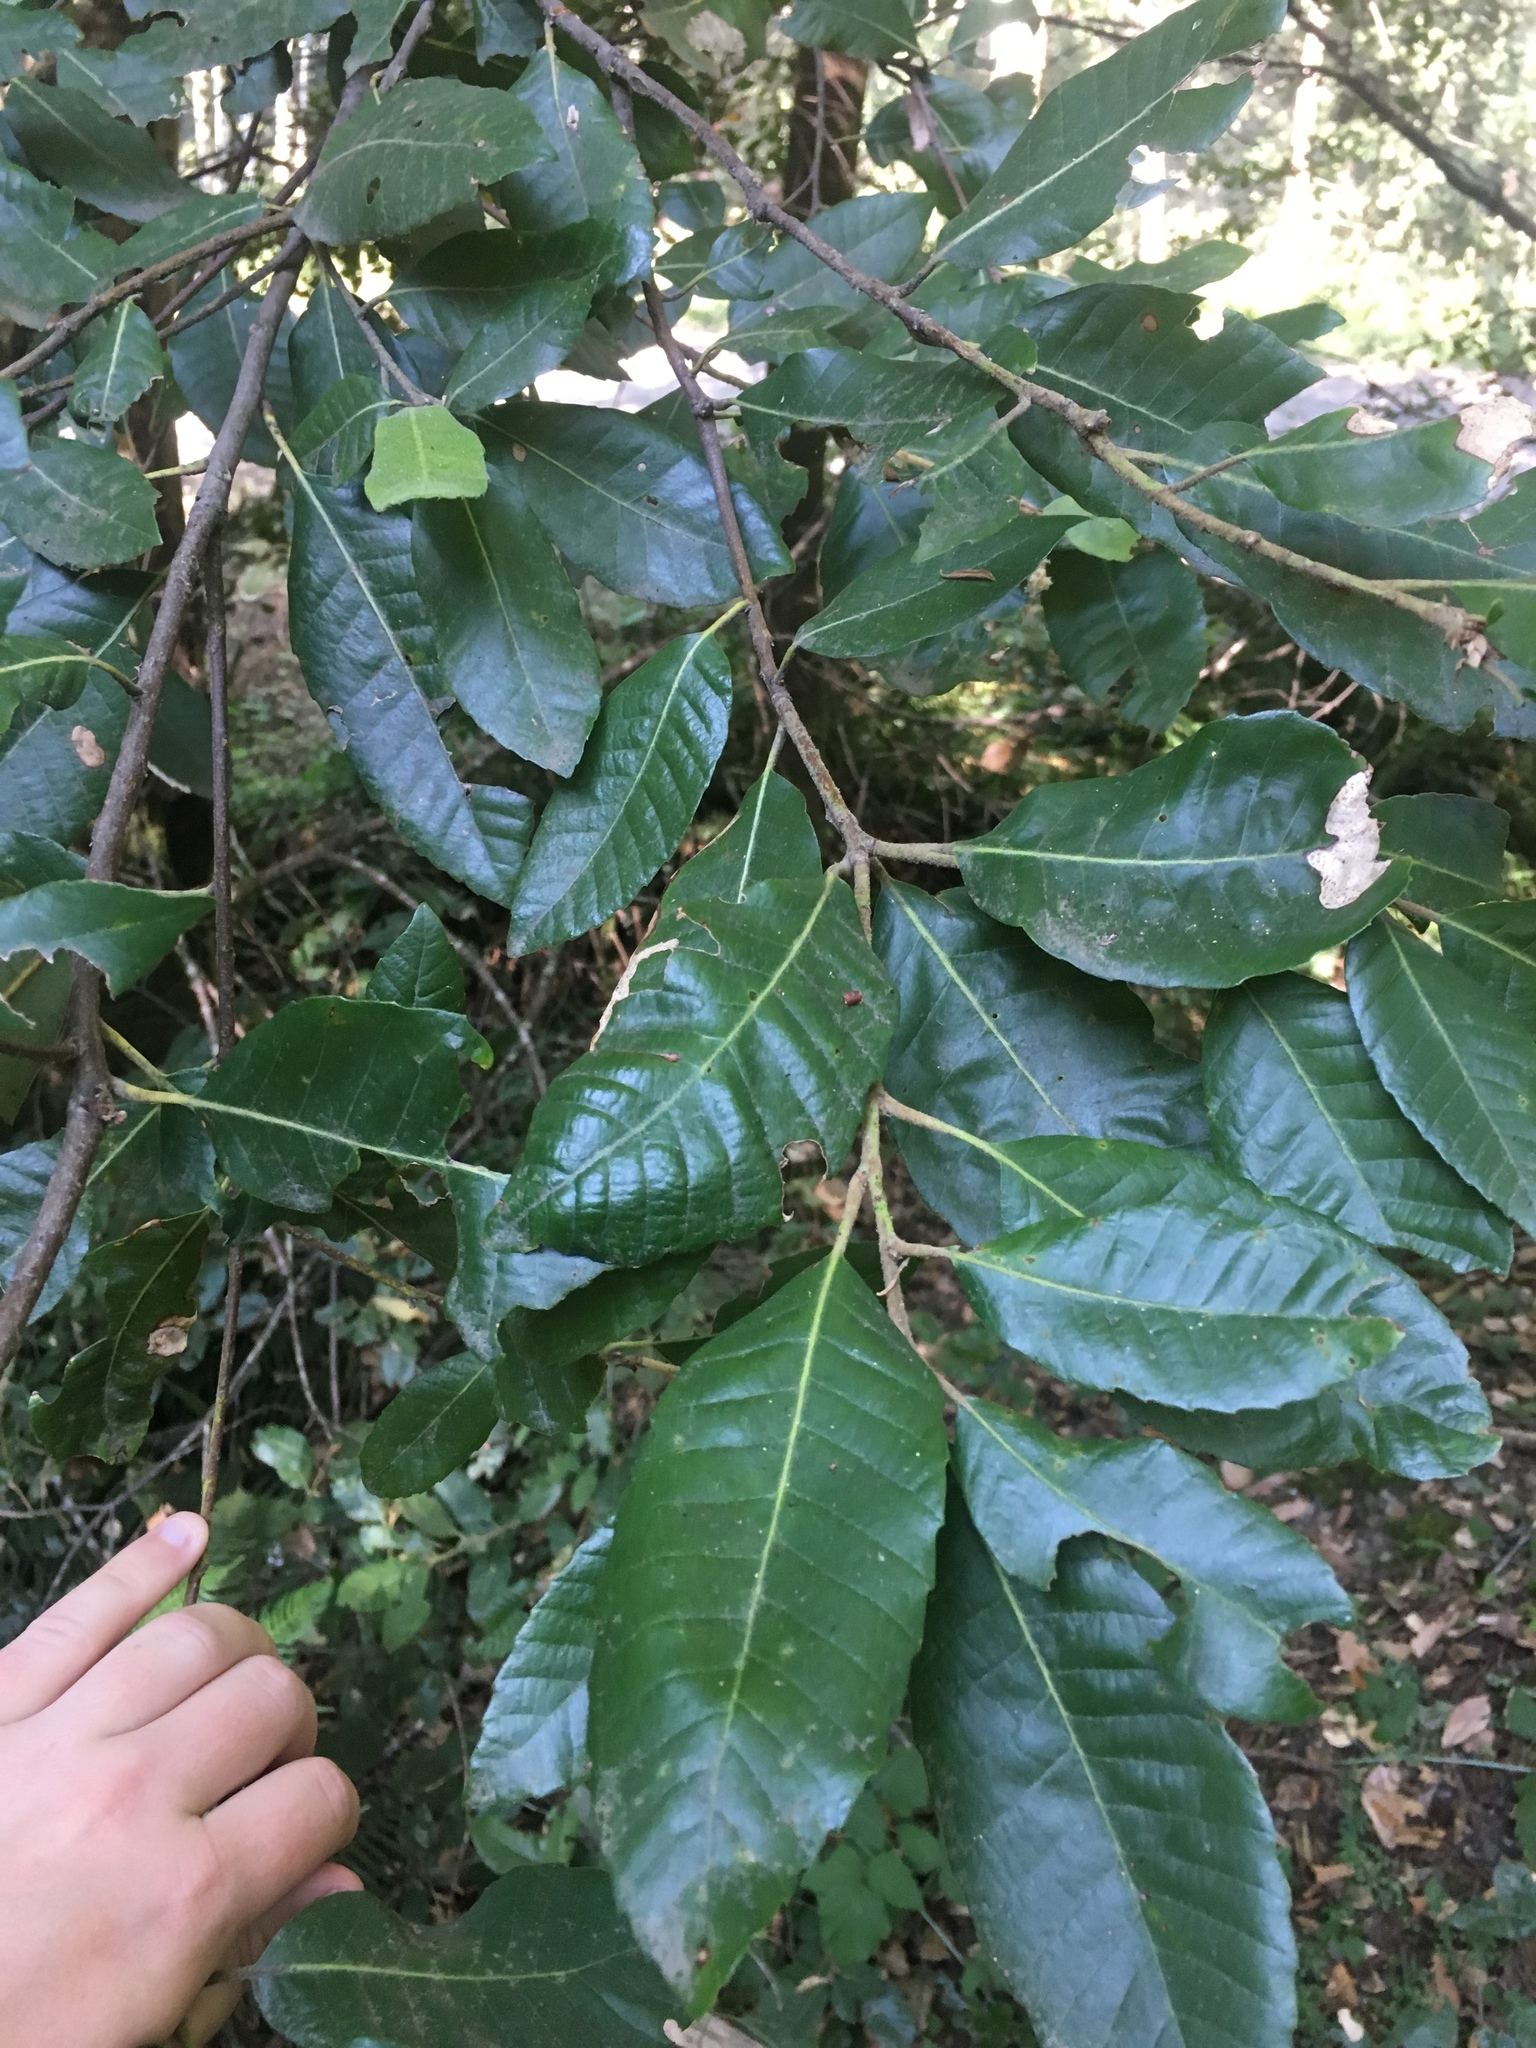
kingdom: Plantae
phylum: Tracheophyta
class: Magnoliopsida
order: Fagales
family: Fagaceae
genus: Notholithocarpus
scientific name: Notholithocarpus densiflorus
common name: Tan bark oak
